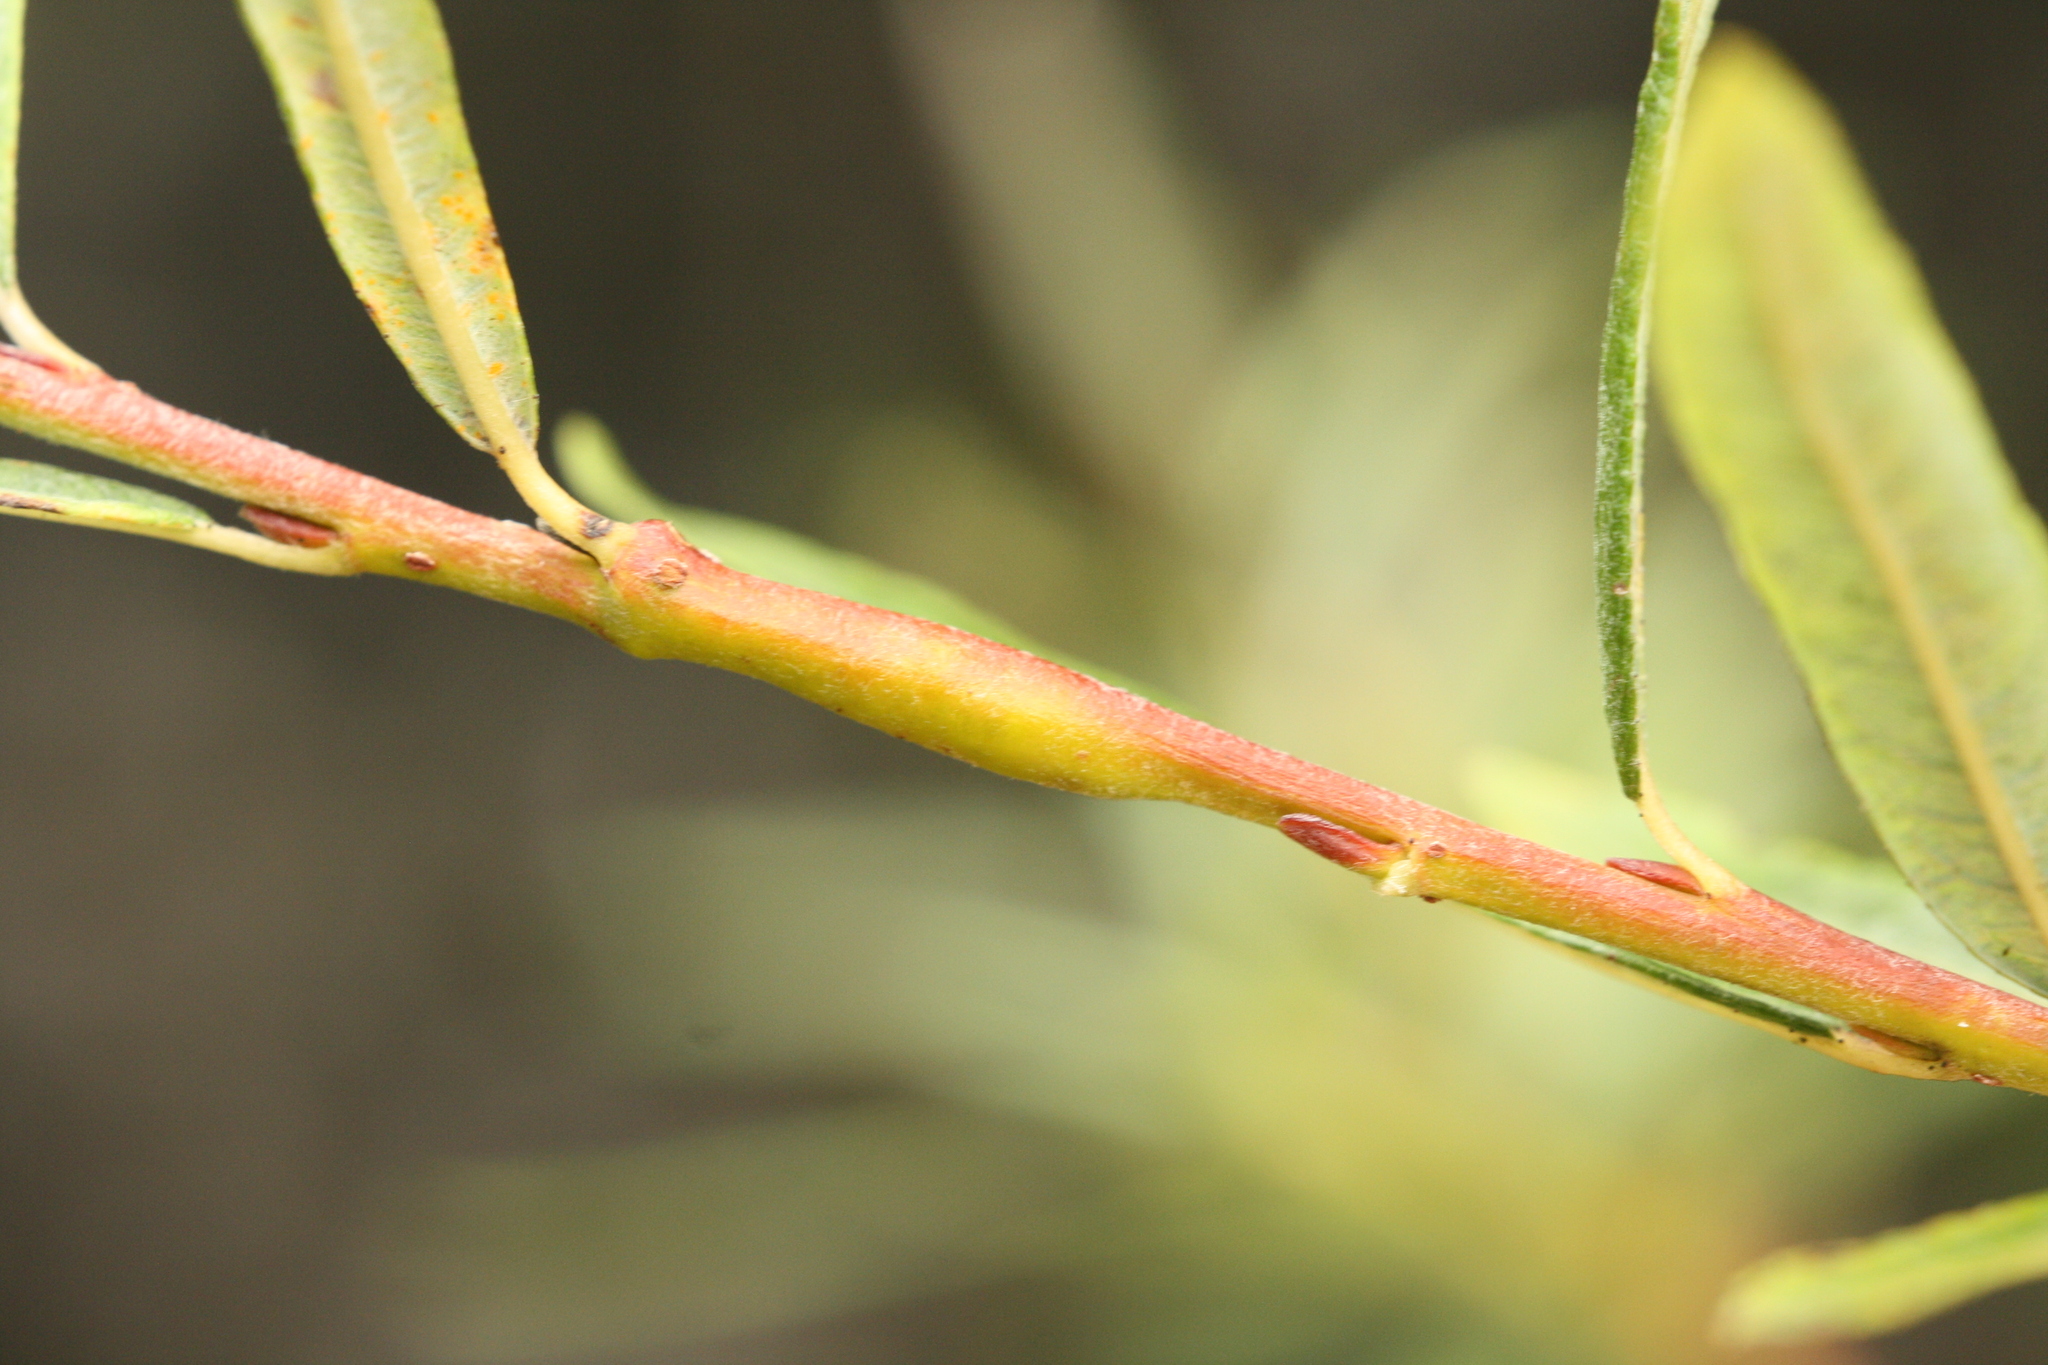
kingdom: Animalia
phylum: Arthropoda
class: Insecta
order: Hymenoptera
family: Tenthredinidae
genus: Euura
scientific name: Euura elaeagnos
